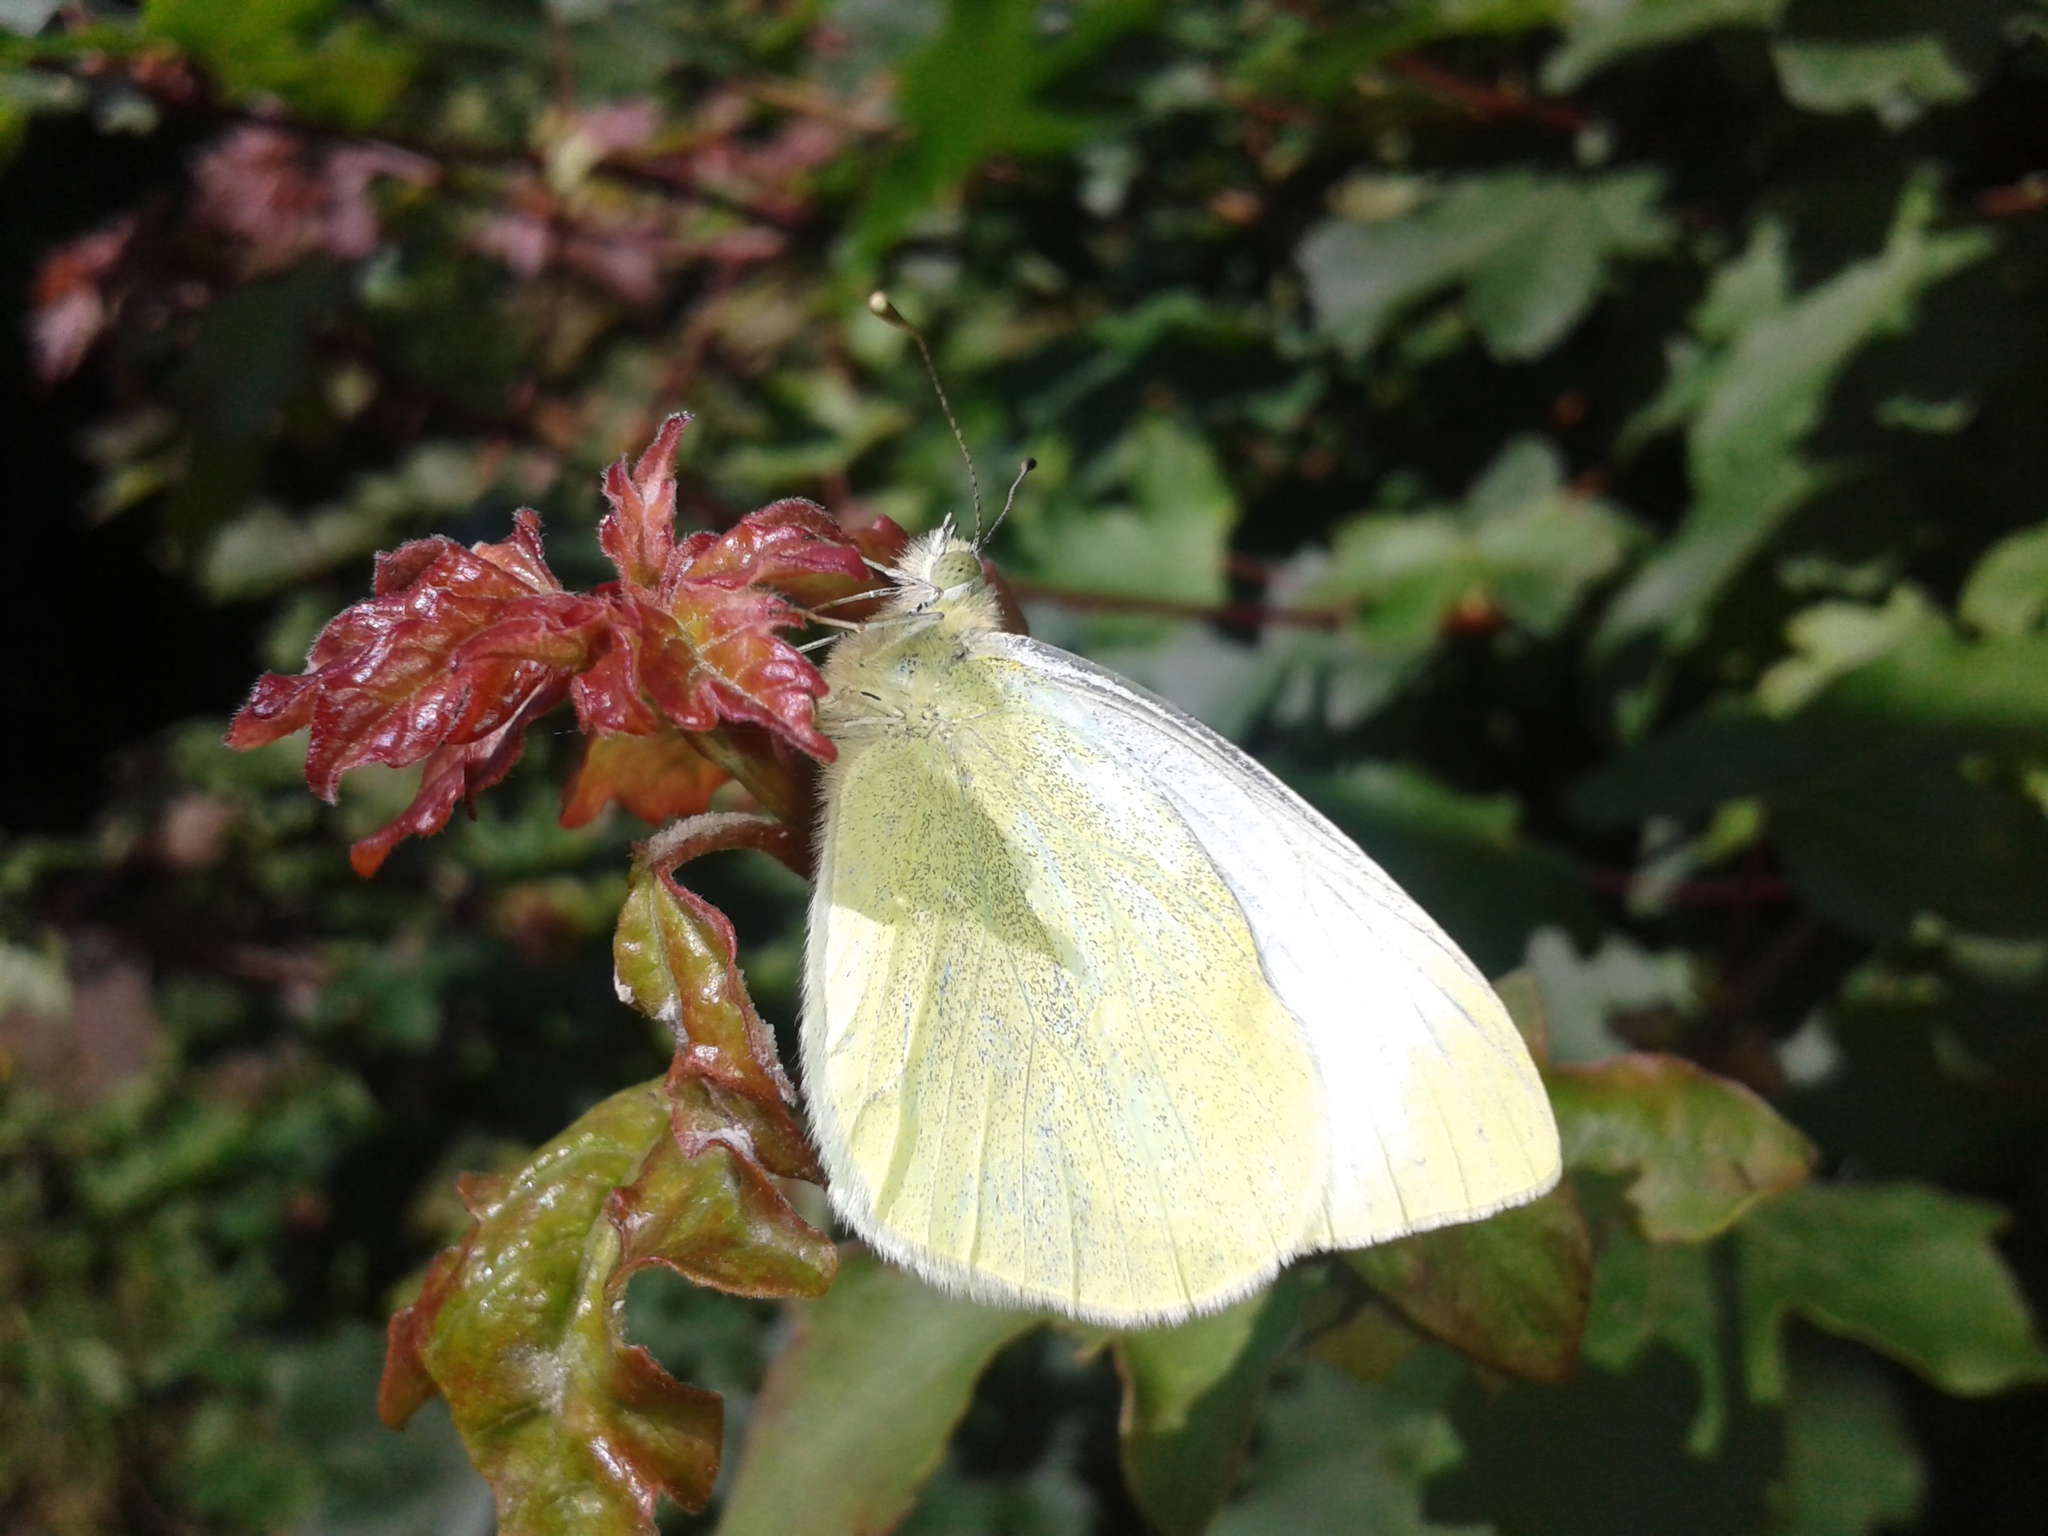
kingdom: Animalia
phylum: Arthropoda
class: Insecta
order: Lepidoptera
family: Pieridae
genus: Pieris
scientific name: Pieris rapae
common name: Small white
